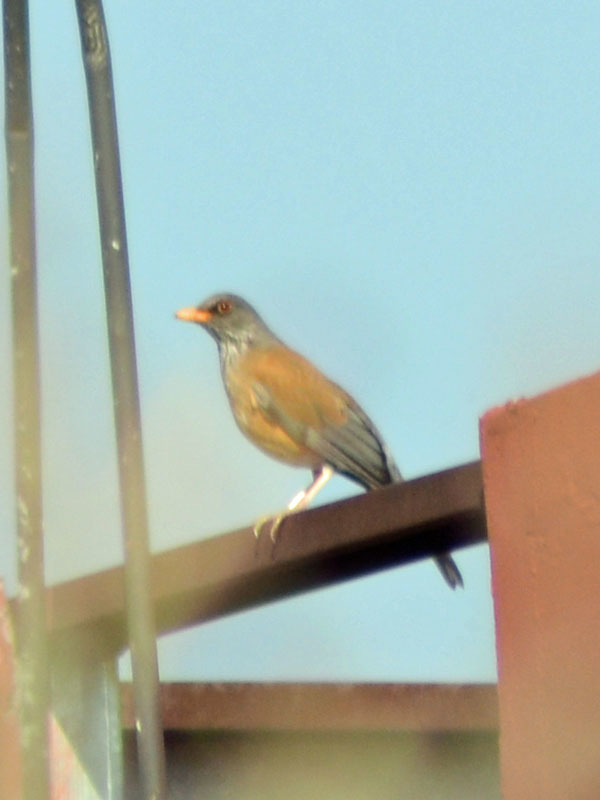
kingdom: Animalia
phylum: Chordata
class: Aves
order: Passeriformes
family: Turdidae
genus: Turdus
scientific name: Turdus rufopalliatus
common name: Rufous-backed robin
